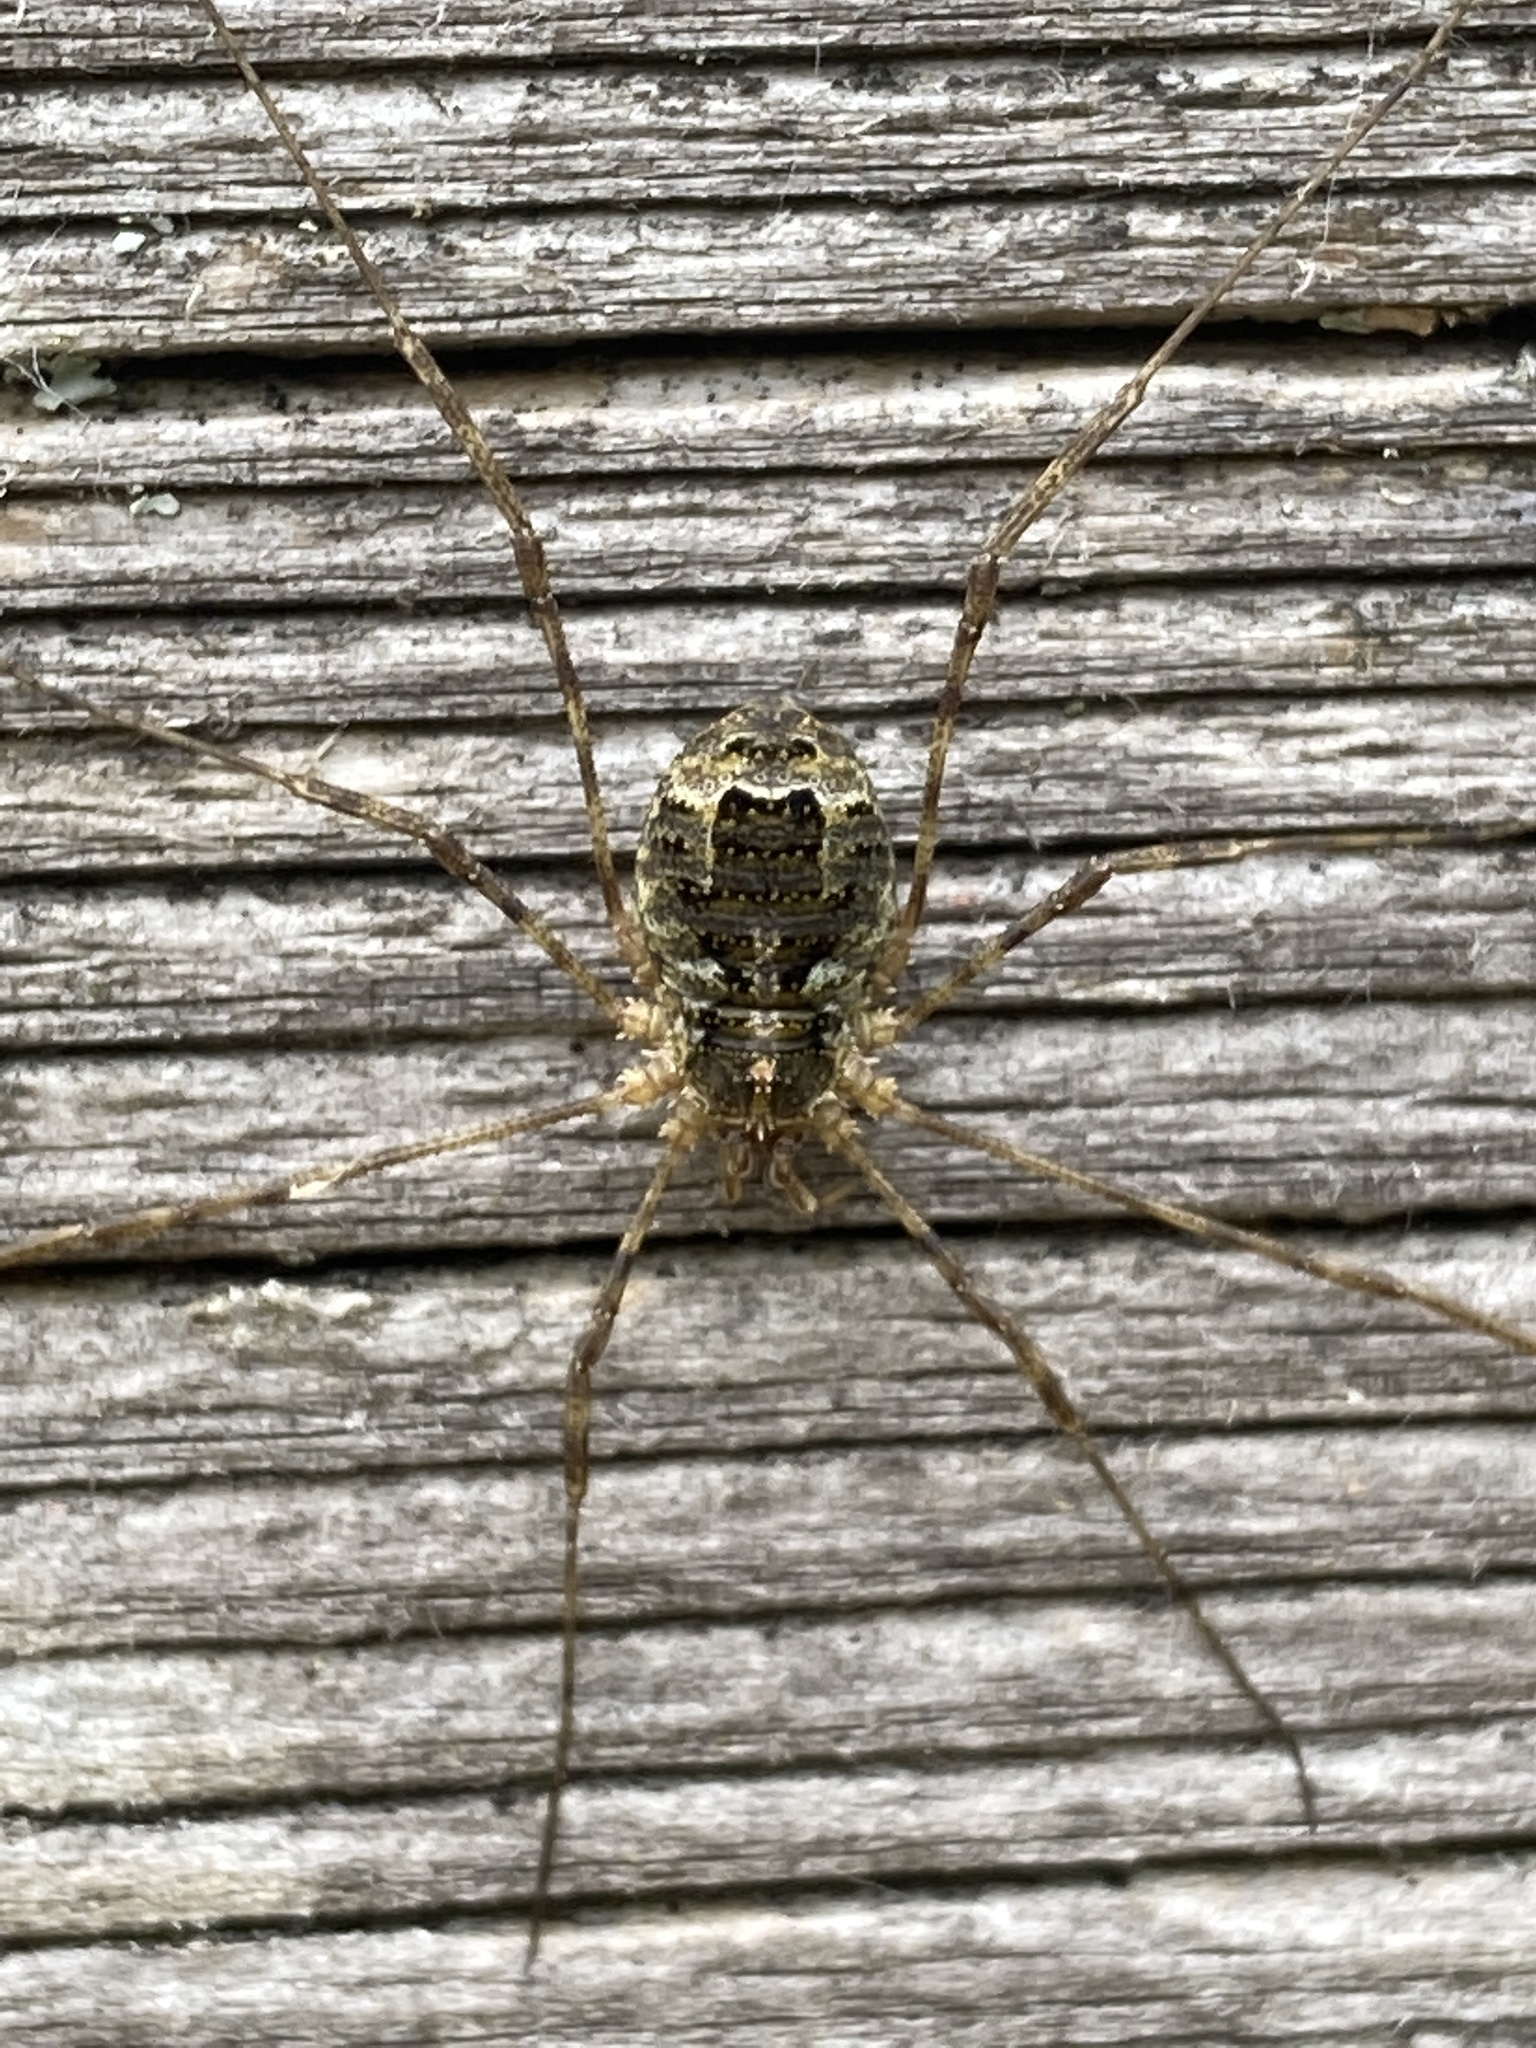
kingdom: Animalia
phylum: Arthropoda
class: Arachnida
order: Opiliones
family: Phalangiidae
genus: Lacinius
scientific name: Lacinius dentiger
